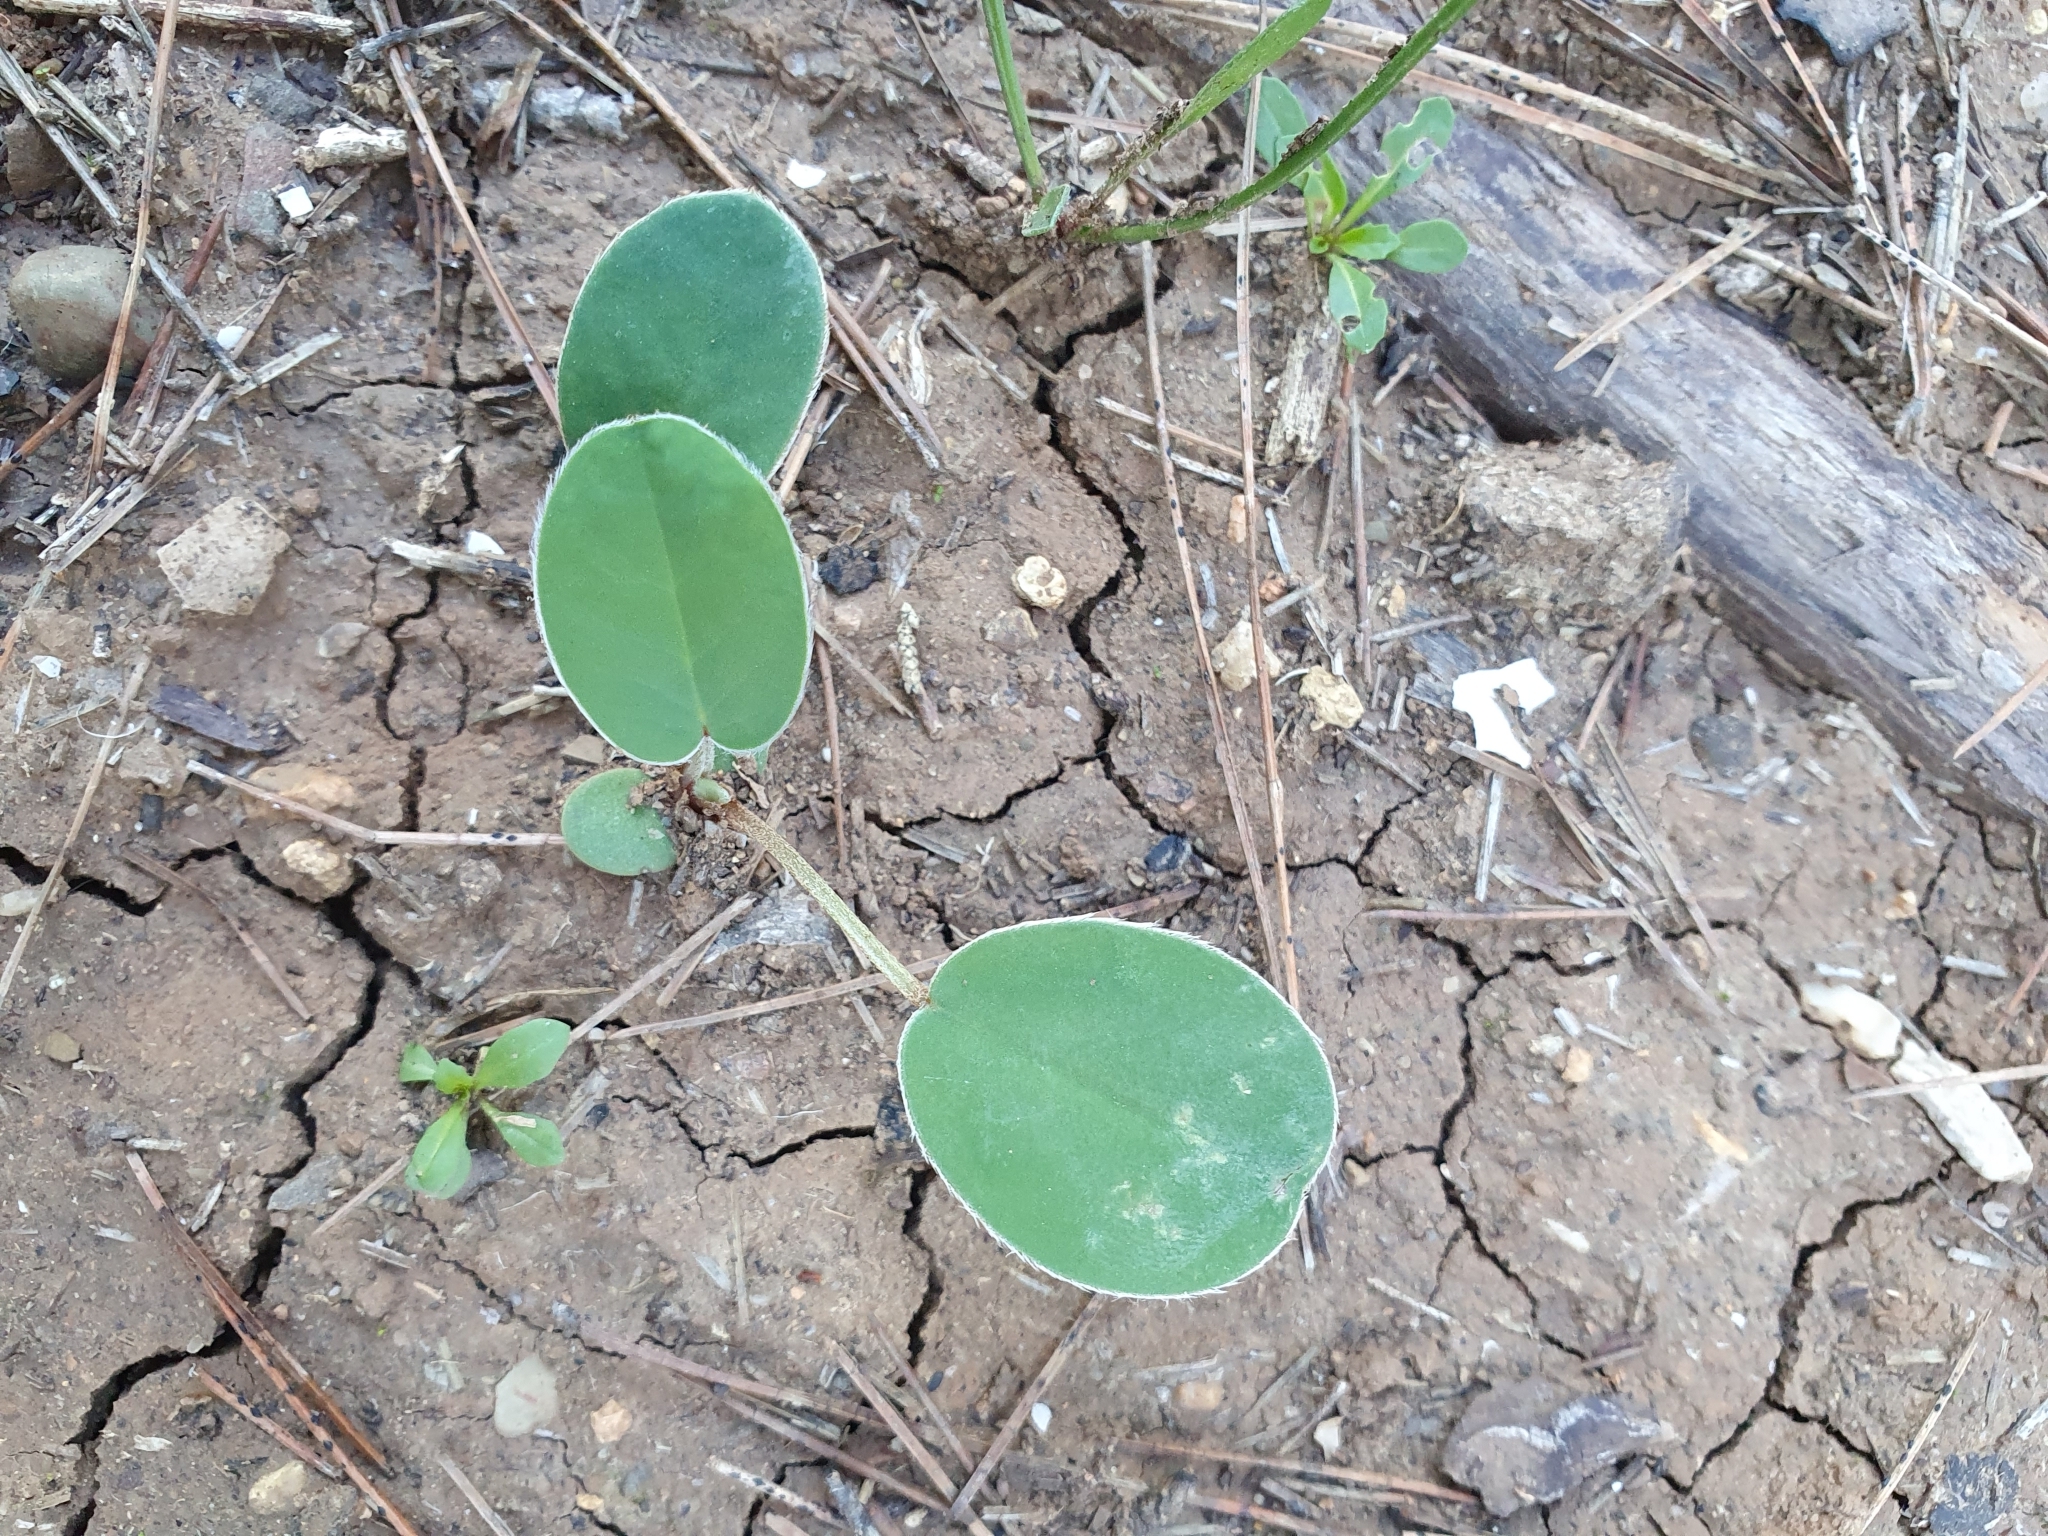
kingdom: Plantae
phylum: Tracheophyta
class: Magnoliopsida
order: Fabales
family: Fabaceae
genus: Sulla
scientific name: Sulla coronaria
